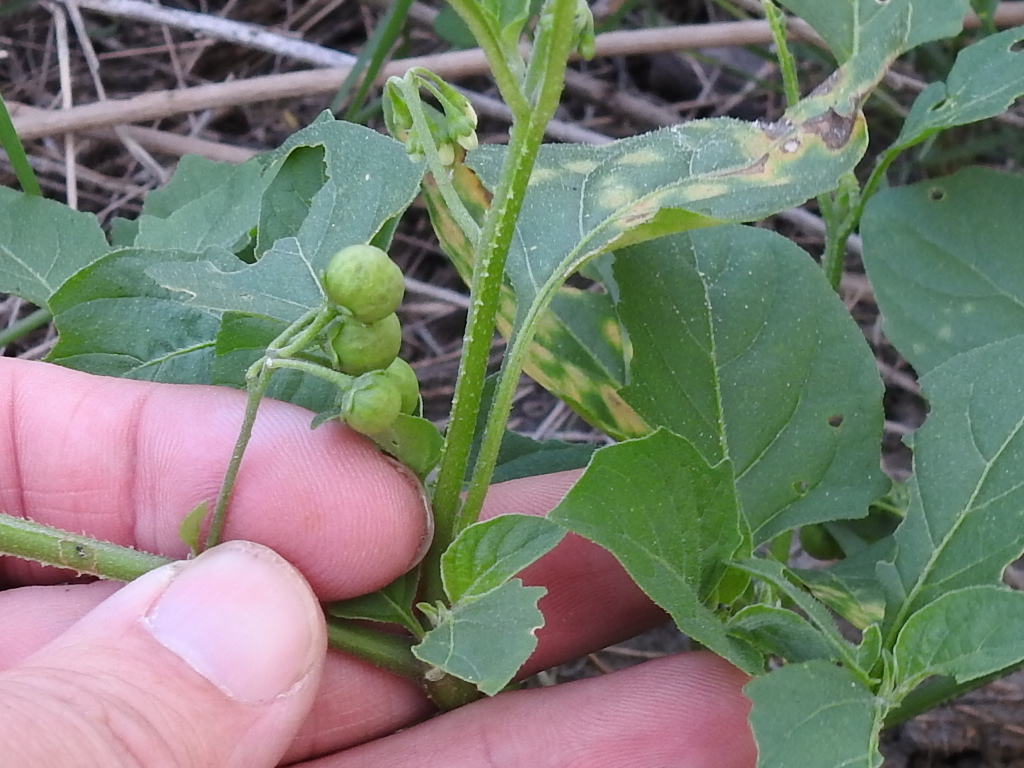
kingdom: Plantae
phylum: Tracheophyta
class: Magnoliopsida
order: Solanales
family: Solanaceae
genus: Solanum
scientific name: Solanum emulans
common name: Eastern black nightshade
